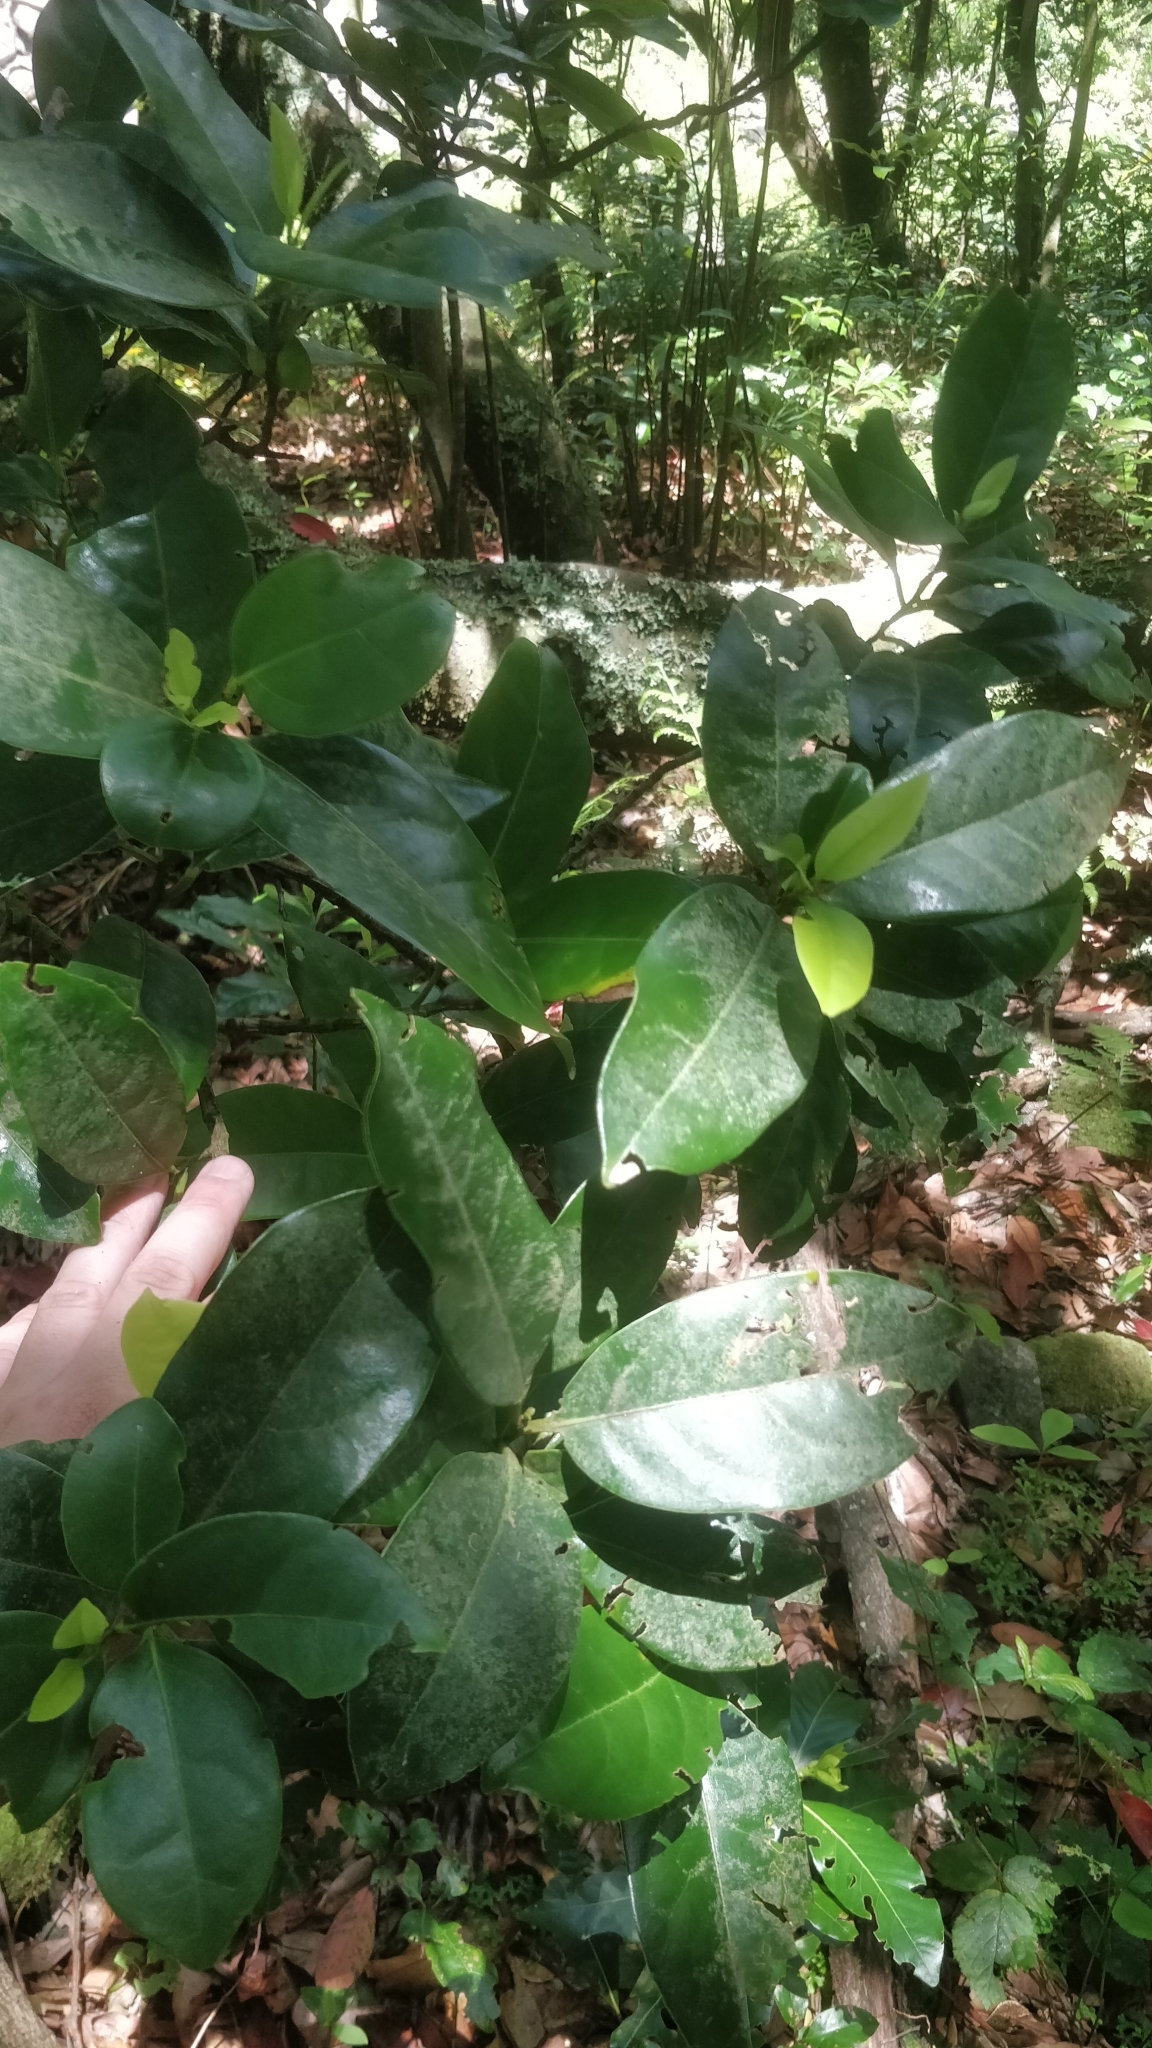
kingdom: Plantae
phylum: Tracheophyta
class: Magnoliopsida
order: Laurales
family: Lauraceae
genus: Mespilodaphne
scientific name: Mespilodaphne foetens
